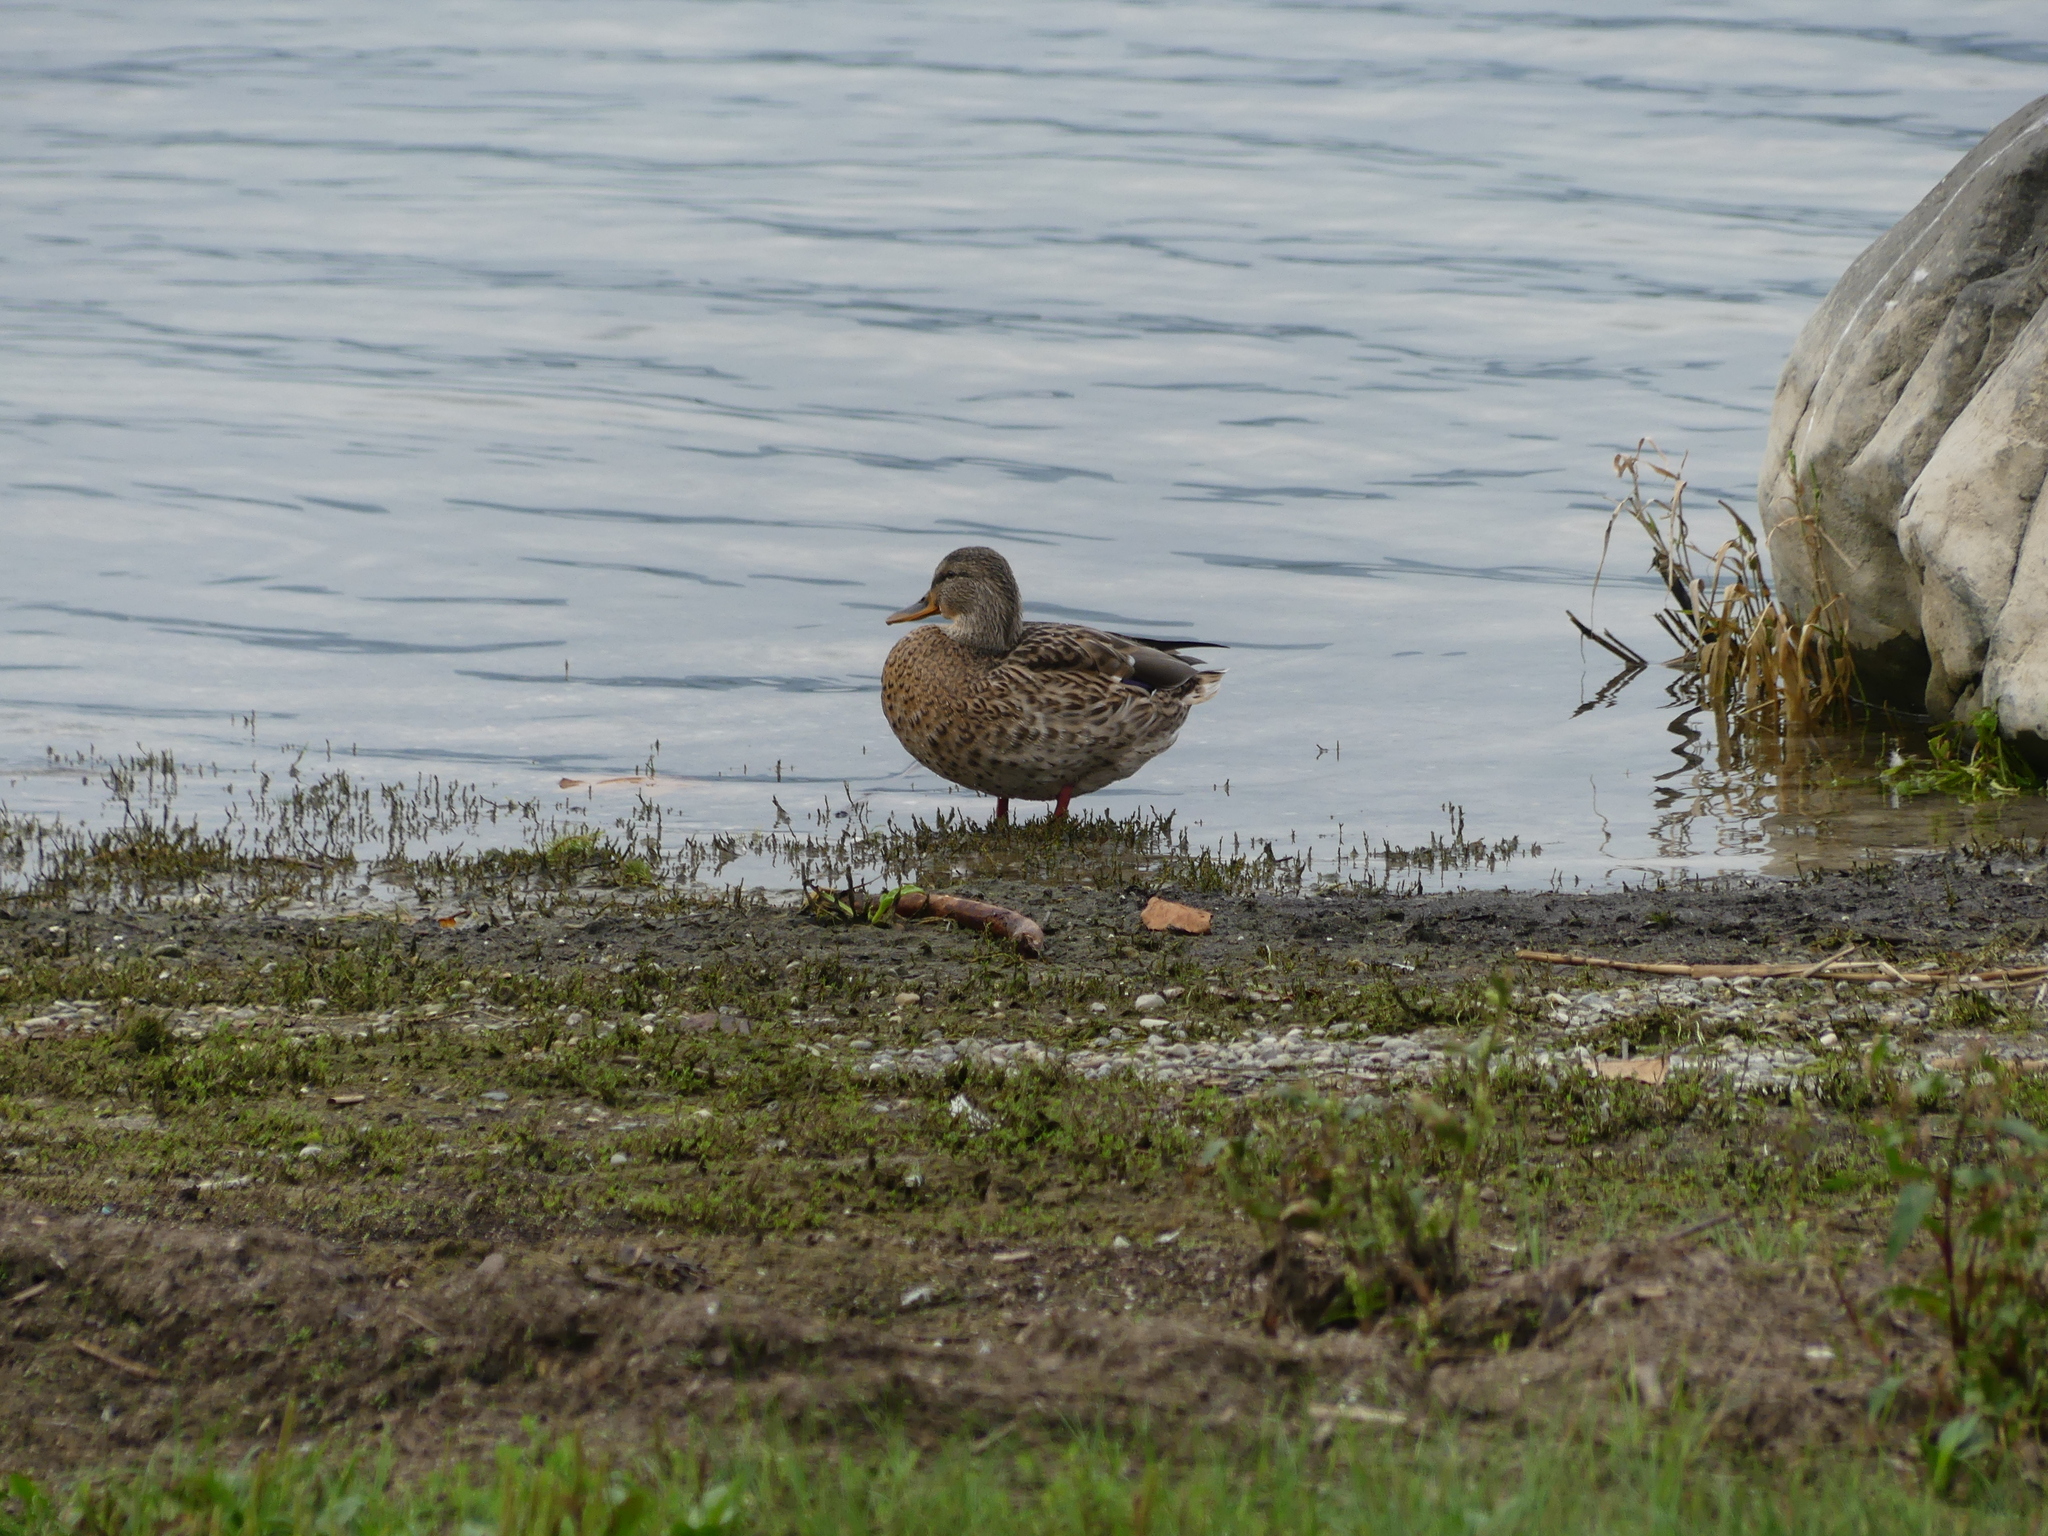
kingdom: Animalia
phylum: Chordata
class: Aves
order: Anseriformes
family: Anatidae
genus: Anas
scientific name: Anas platyrhynchos
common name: Mallard
